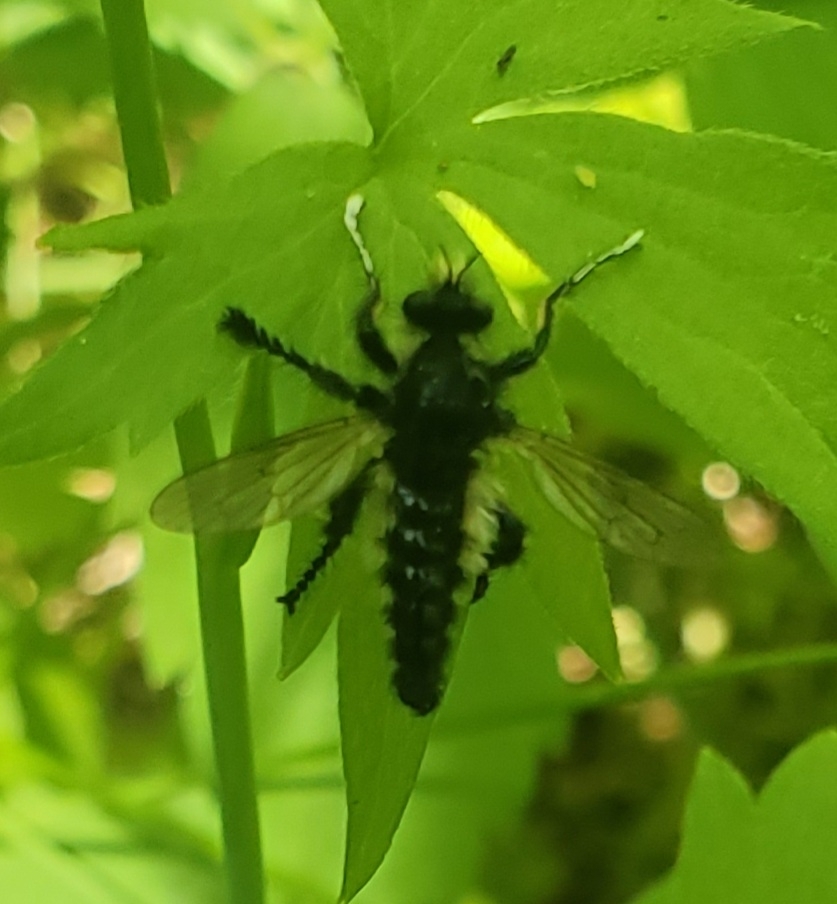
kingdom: Animalia
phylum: Arthropoda
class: Insecta
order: Diptera
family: Asilidae
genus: Cyrtopogon
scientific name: Cyrtopogon willistoni
